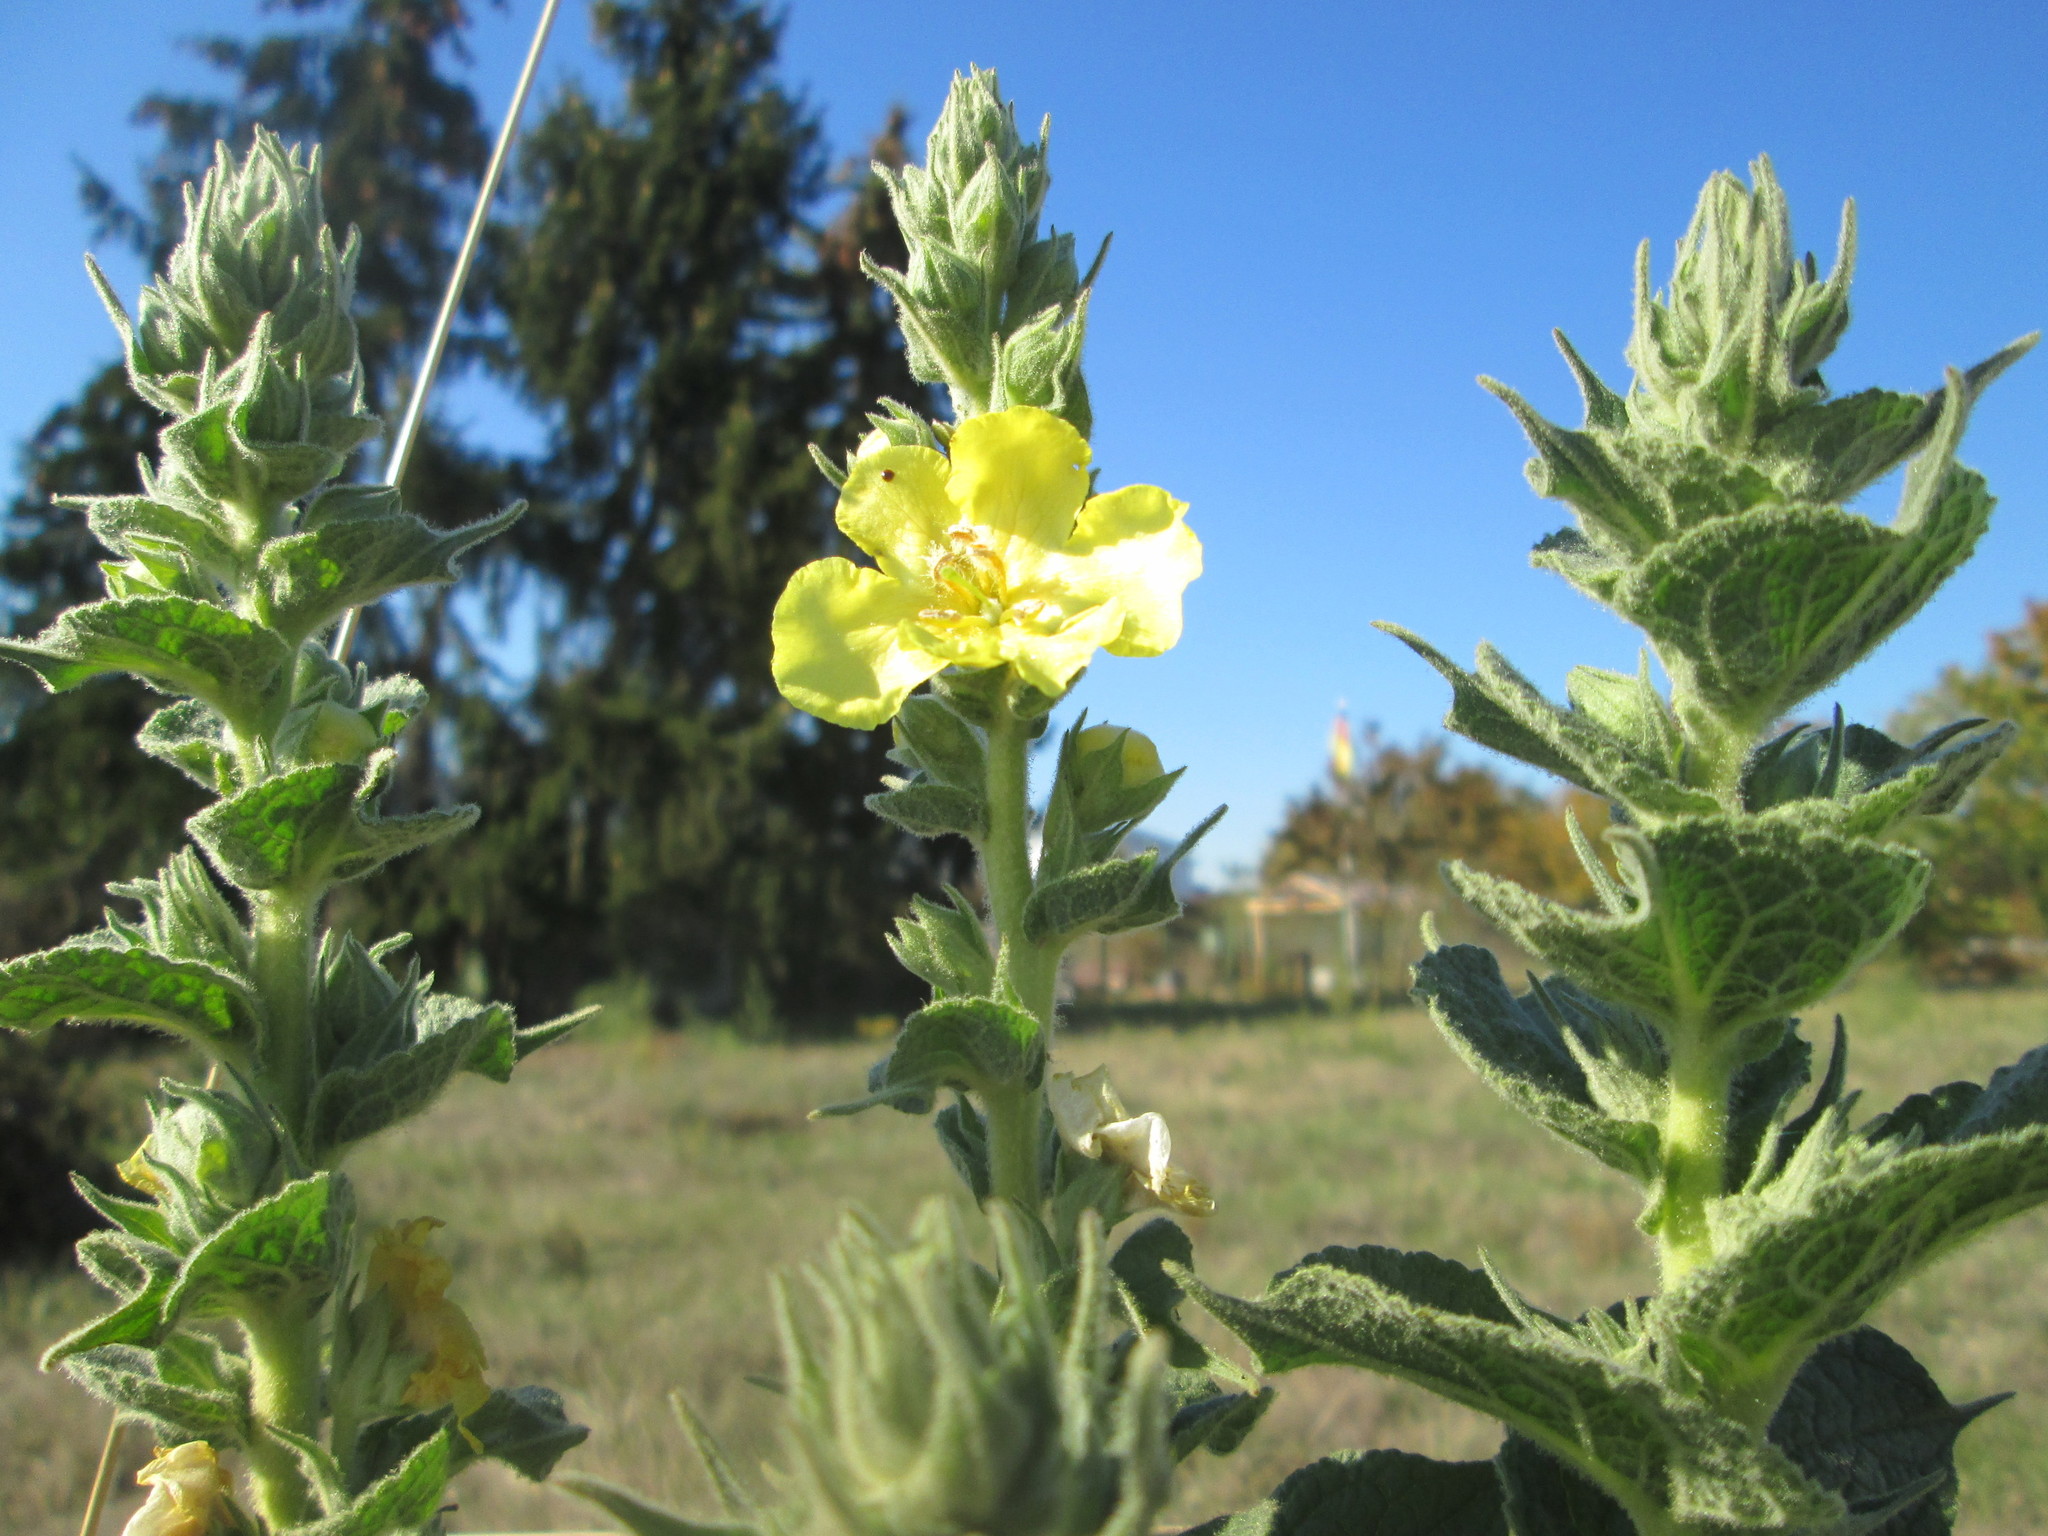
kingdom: Plantae
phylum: Tracheophyta
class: Magnoliopsida
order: Lamiales
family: Scrophulariaceae
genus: Verbascum
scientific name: Verbascum thapsus
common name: Common mullein
